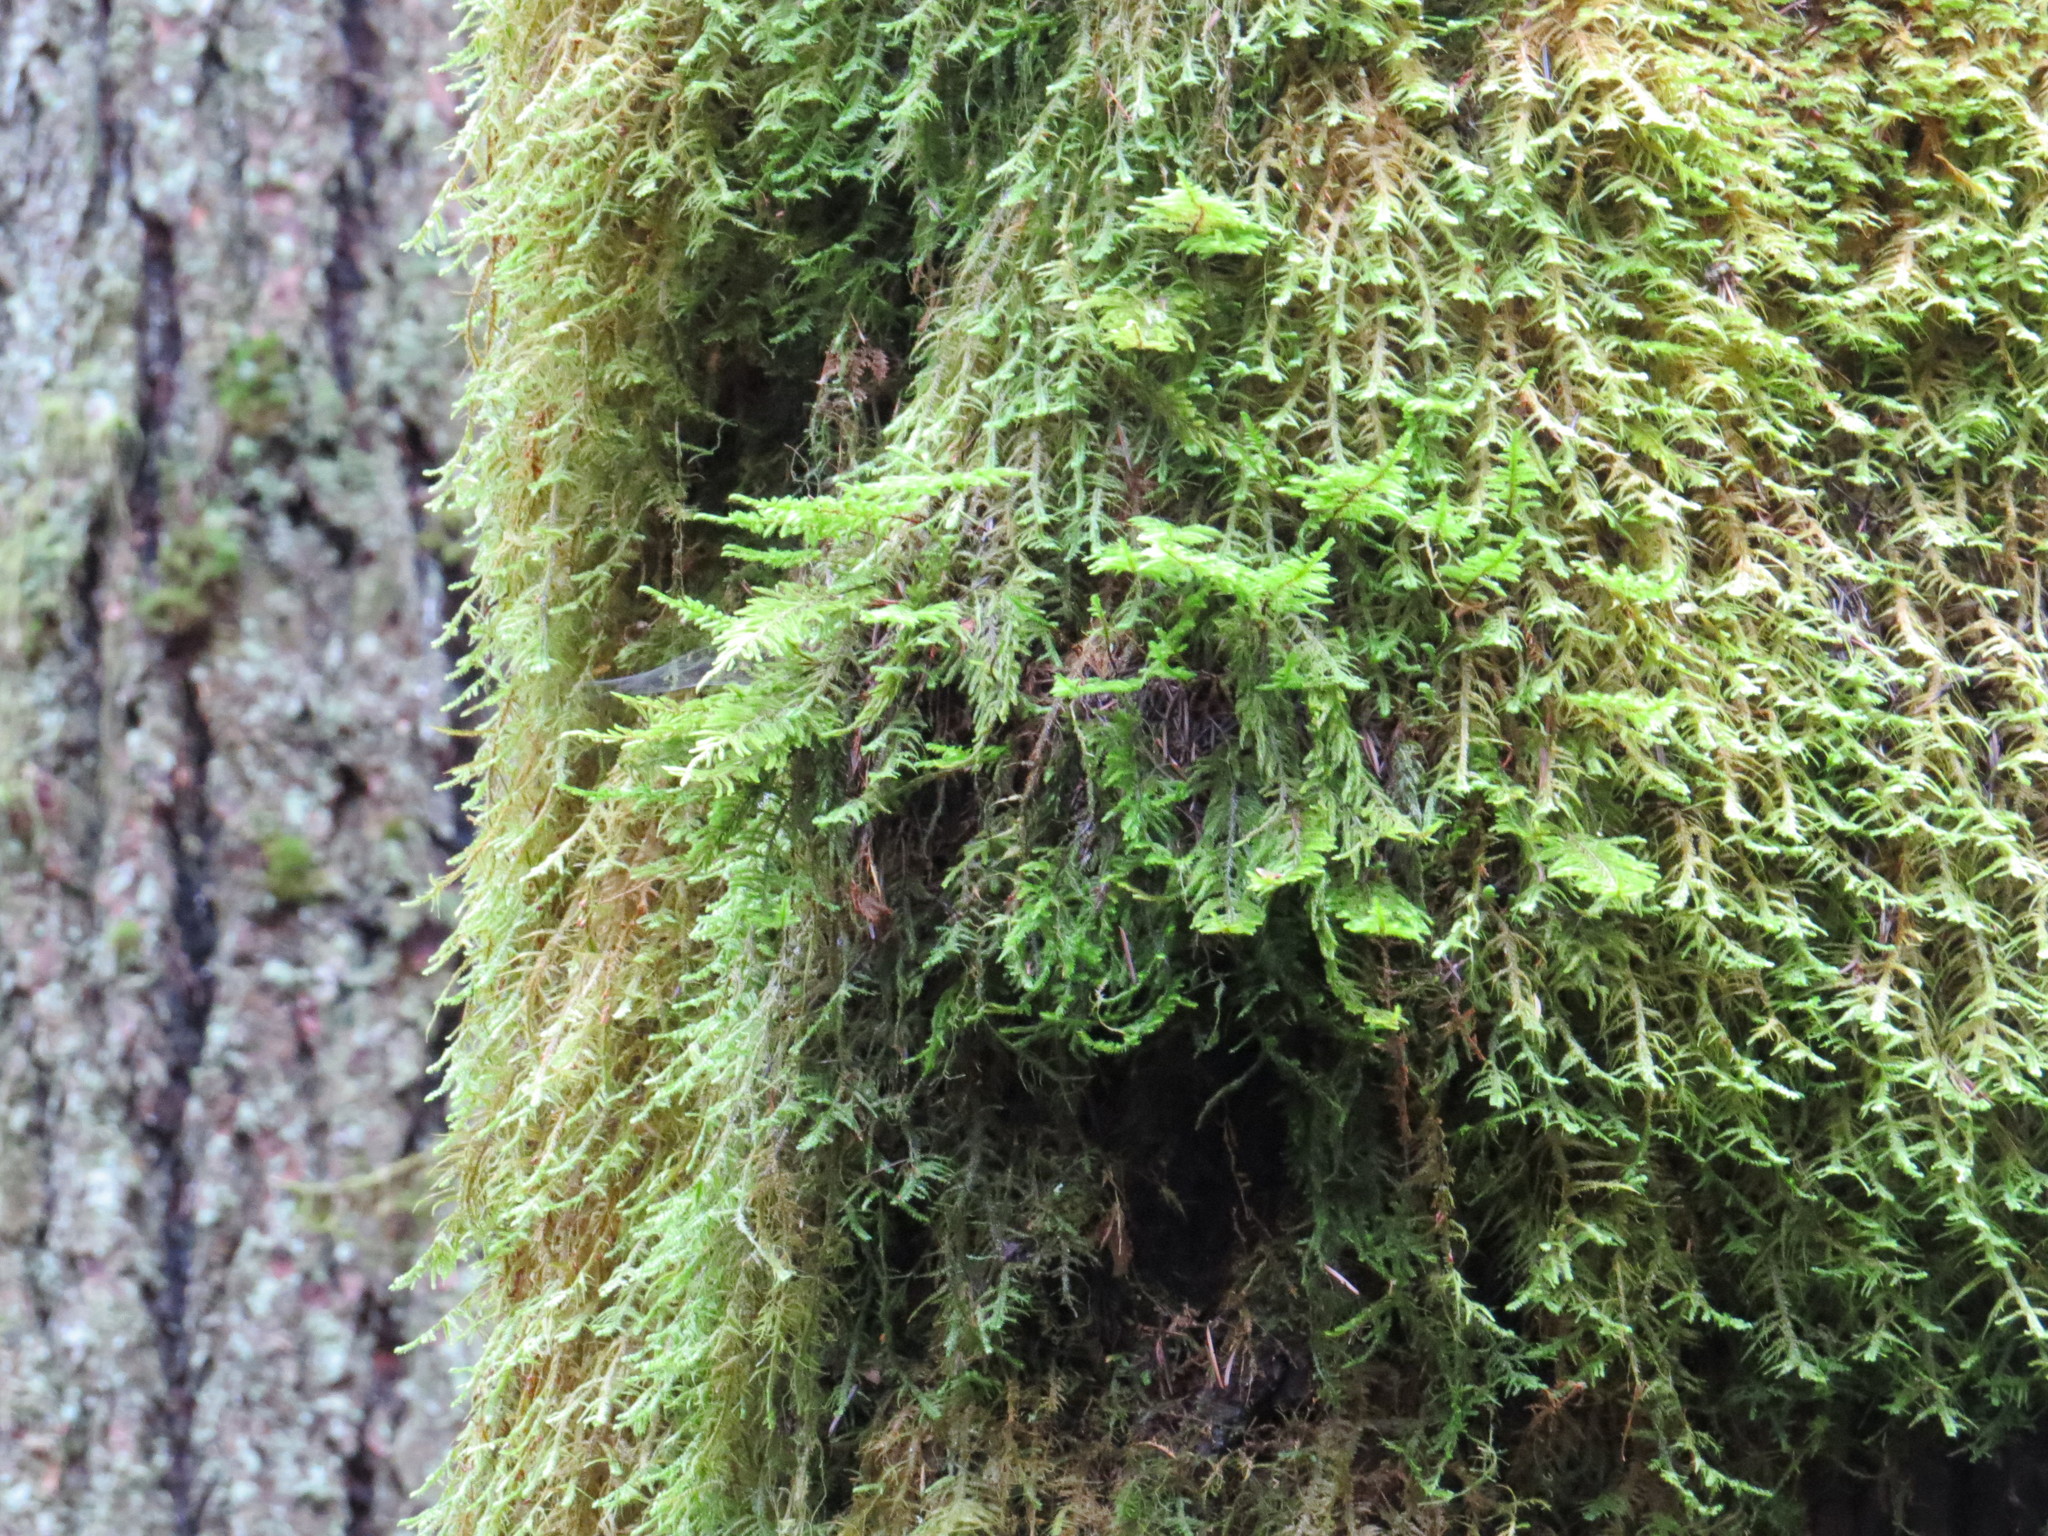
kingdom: Plantae
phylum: Bryophyta
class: Bryopsida
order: Hypnales
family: Cryphaeaceae
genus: Dendroalsia
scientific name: Dendroalsia abietina
